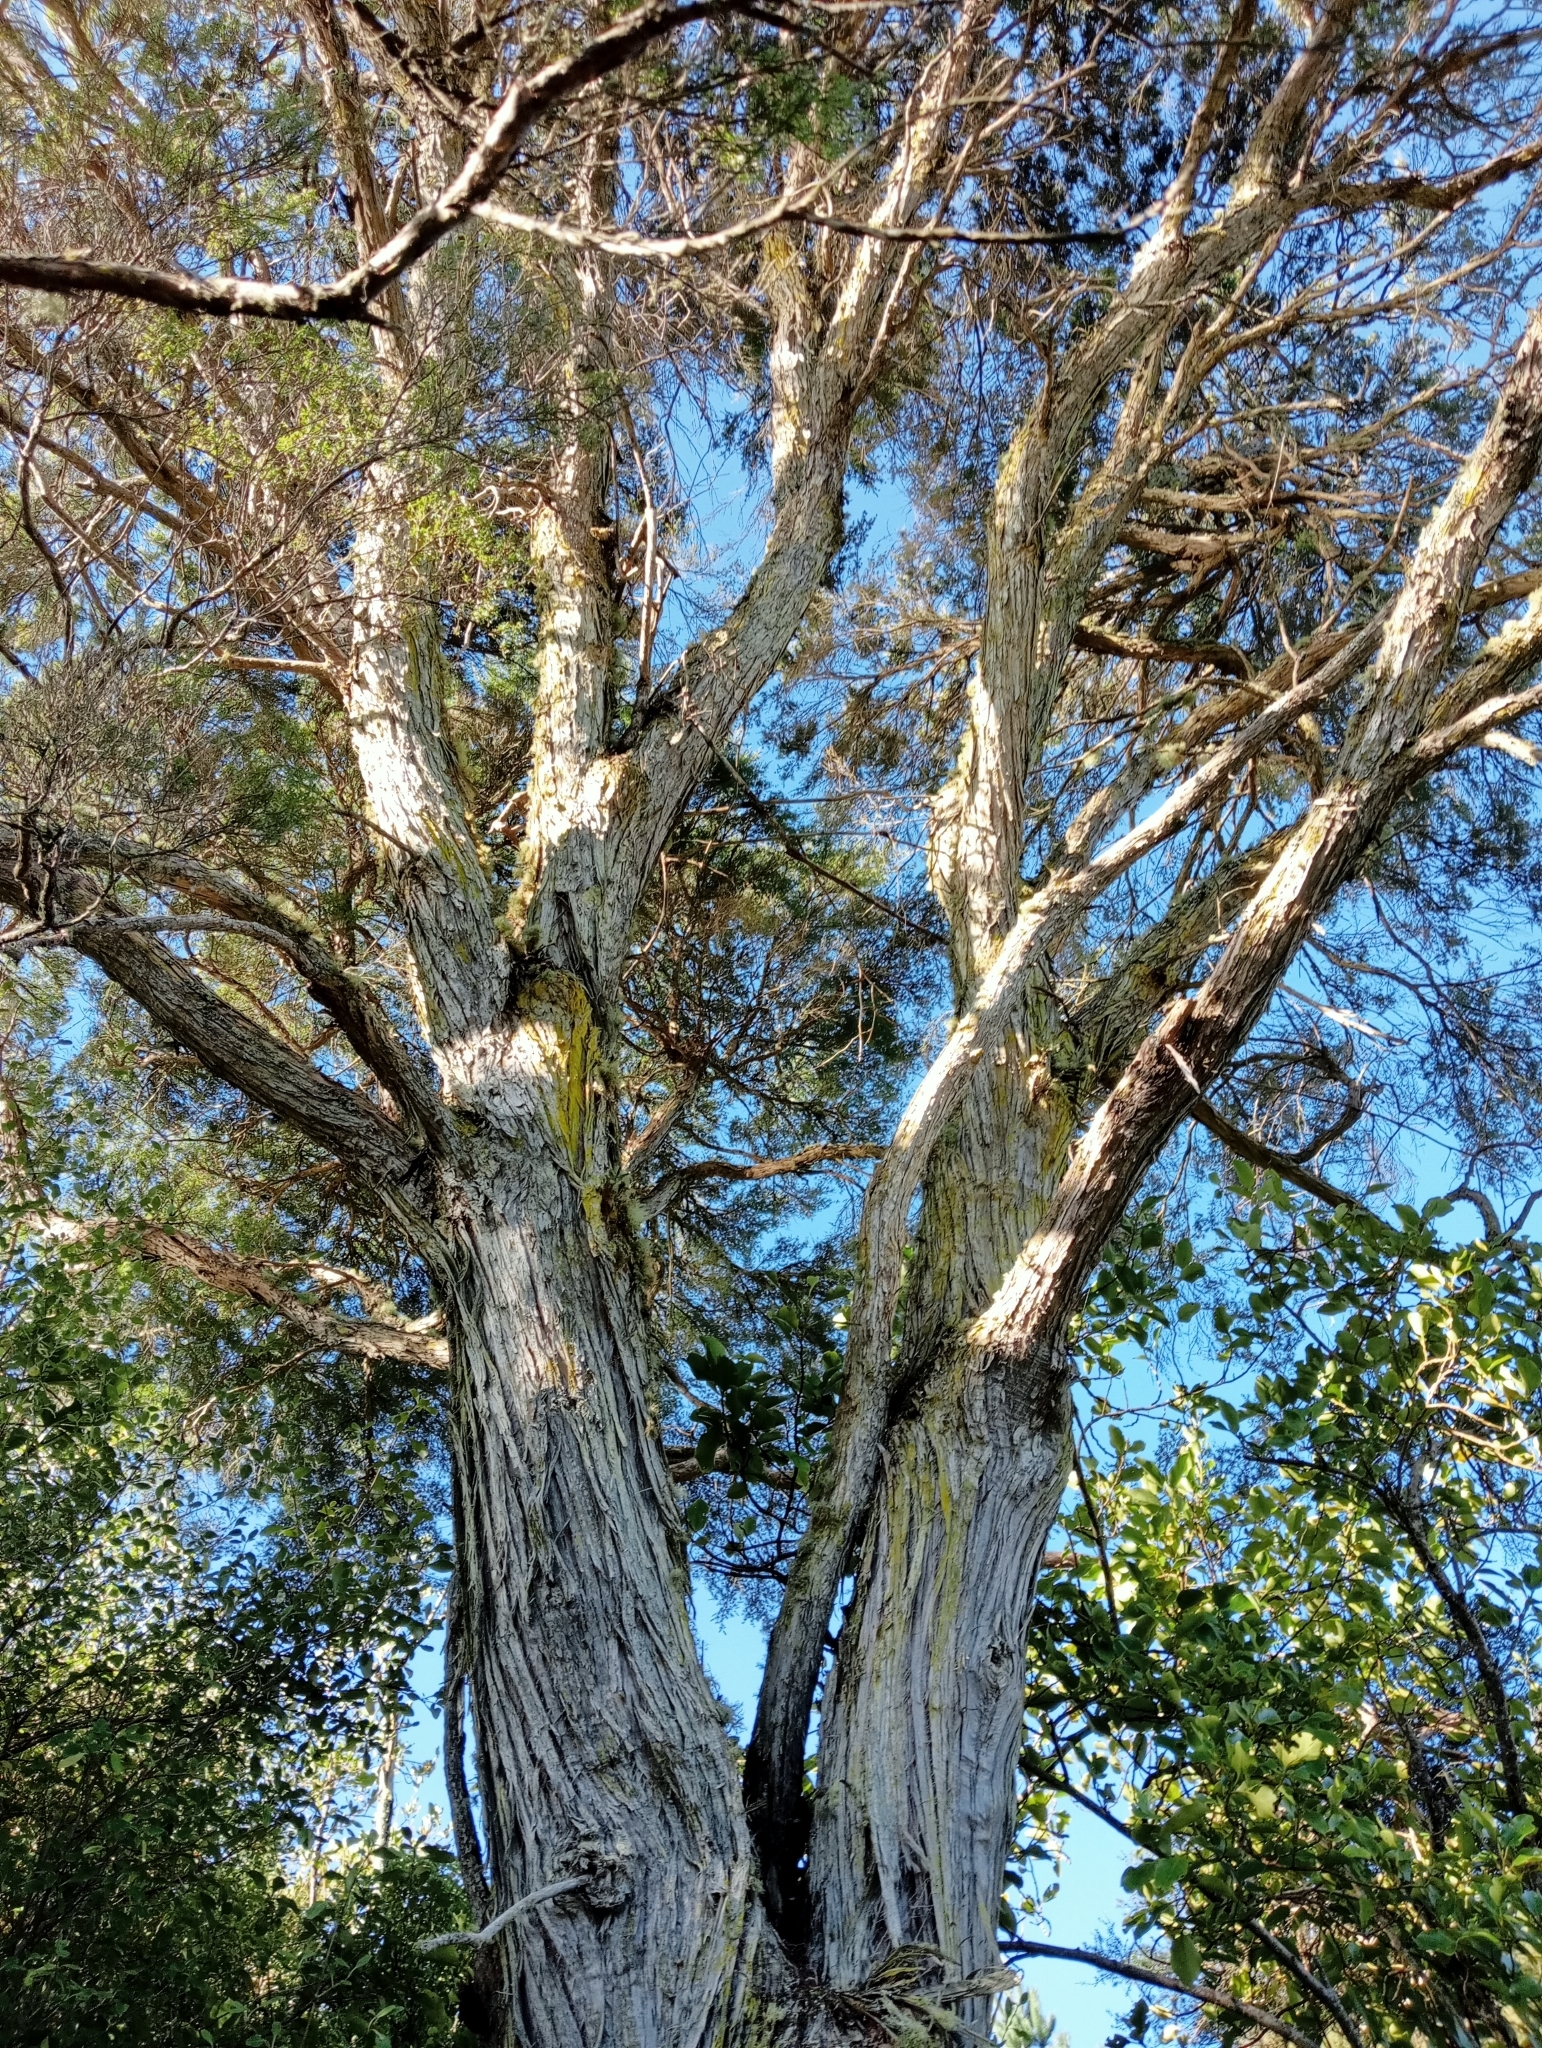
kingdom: Plantae
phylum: Tracheophyta
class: Magnoliopsida
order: Myrtales
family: Myrtaceae
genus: Kunzea
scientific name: Kunzea robusta
